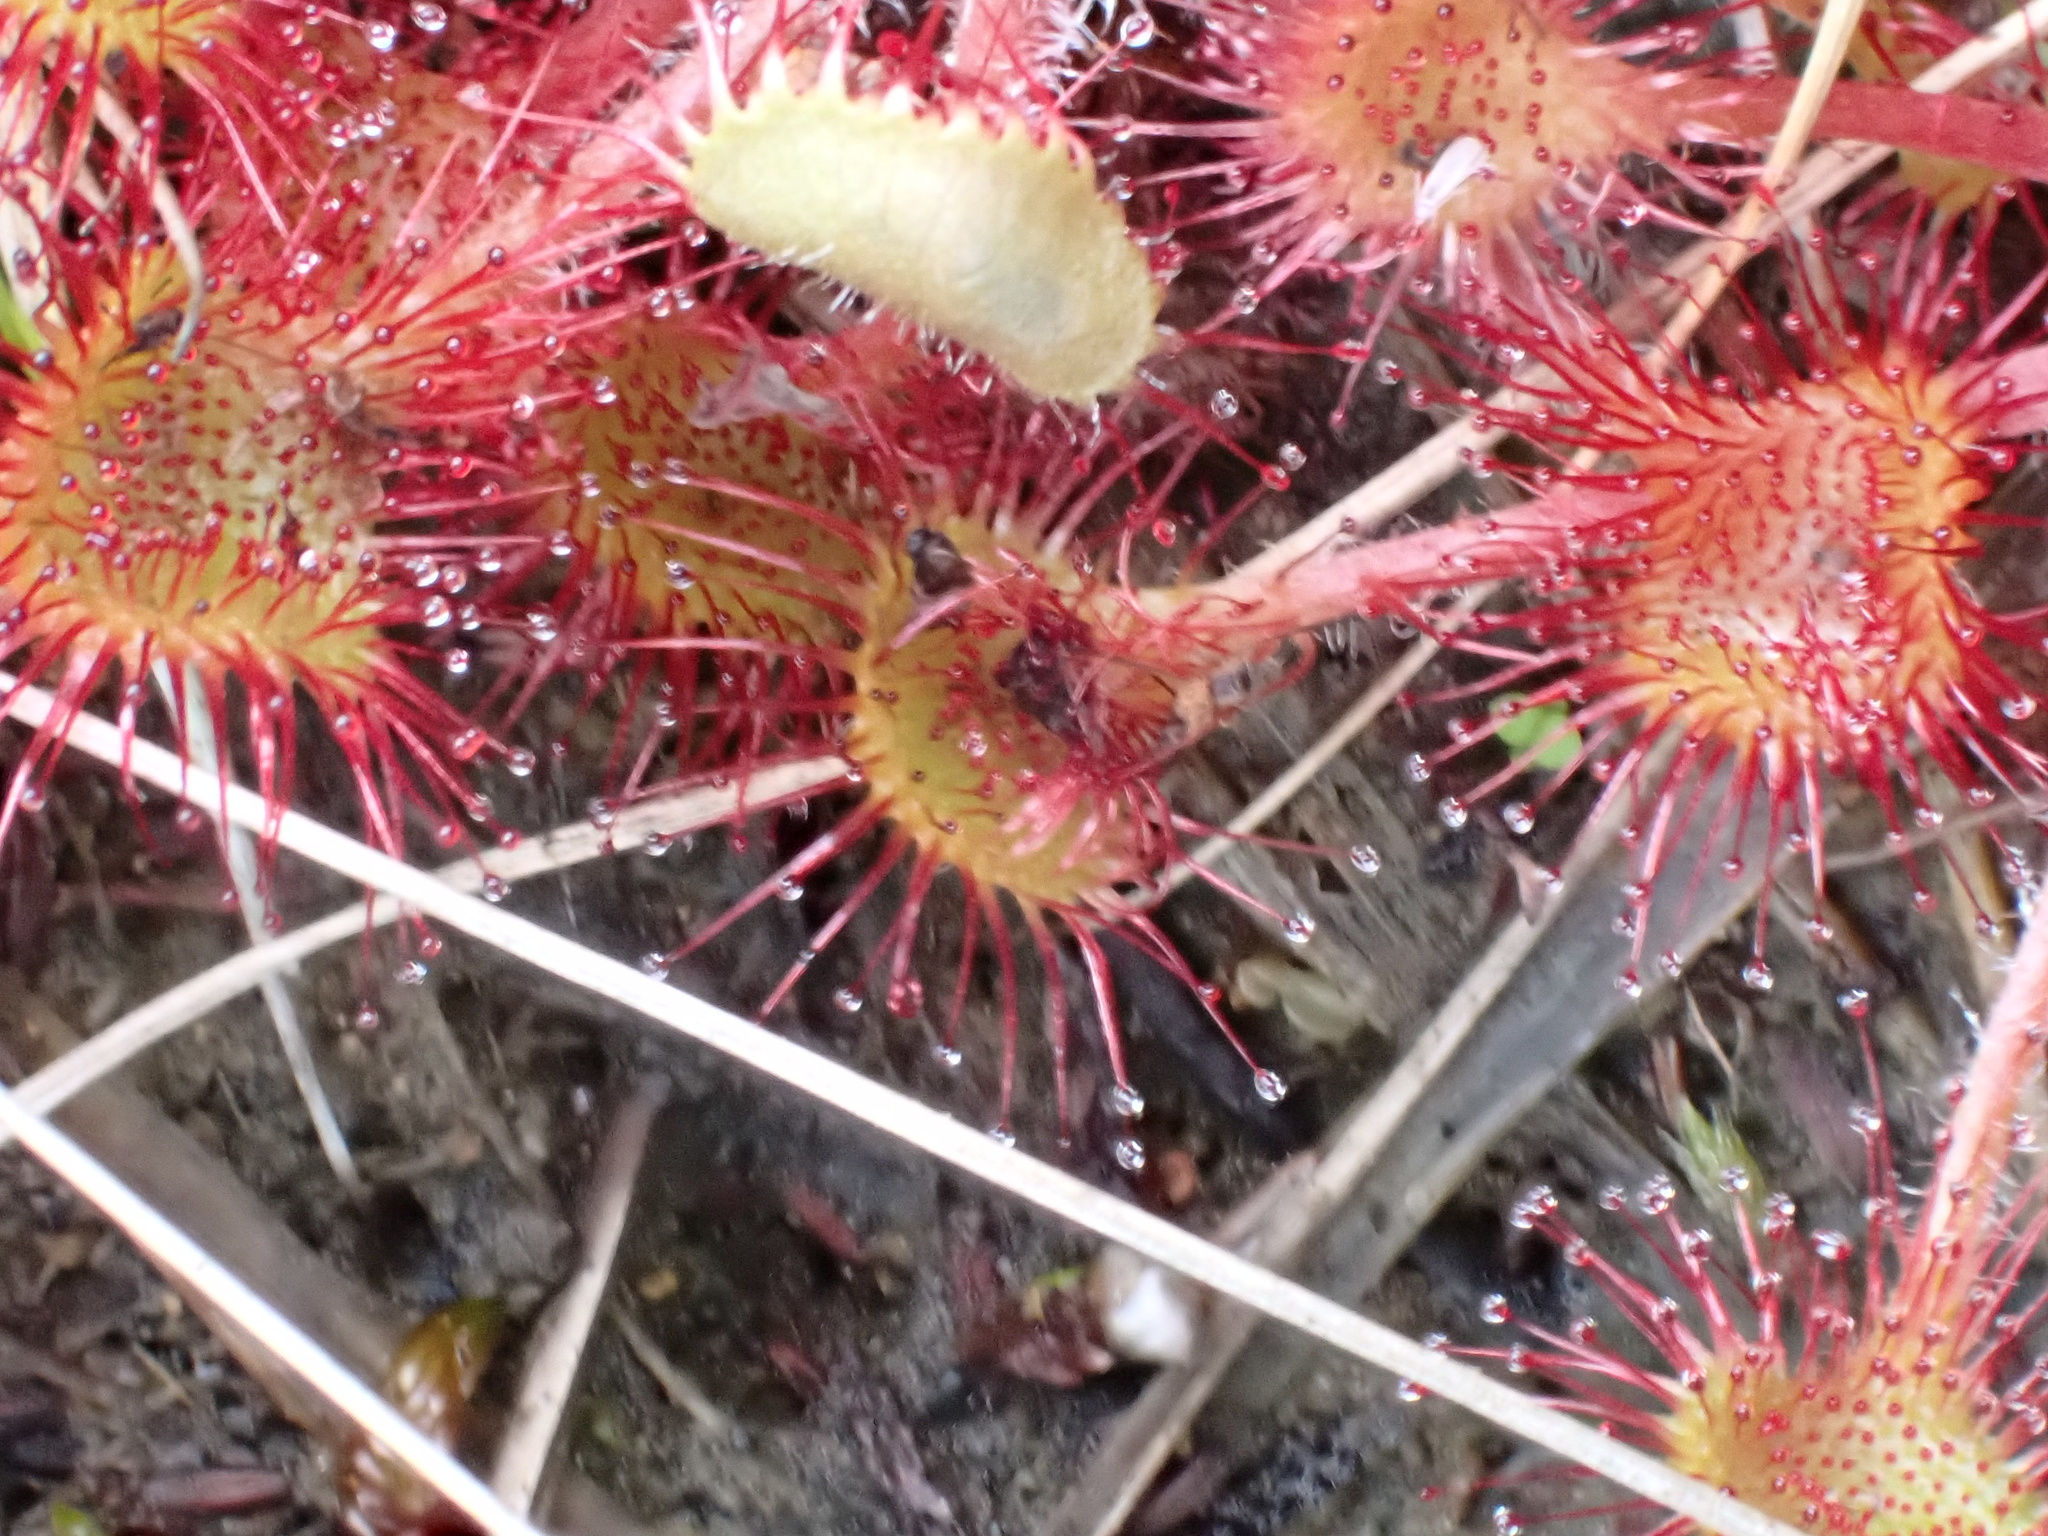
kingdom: Plantae
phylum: Tracheophyta
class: Magnoliopsida
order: Caryophyllales
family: Droseraceae
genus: Drosera
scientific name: Drosera rotundifolia
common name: Round-leaved sundew
